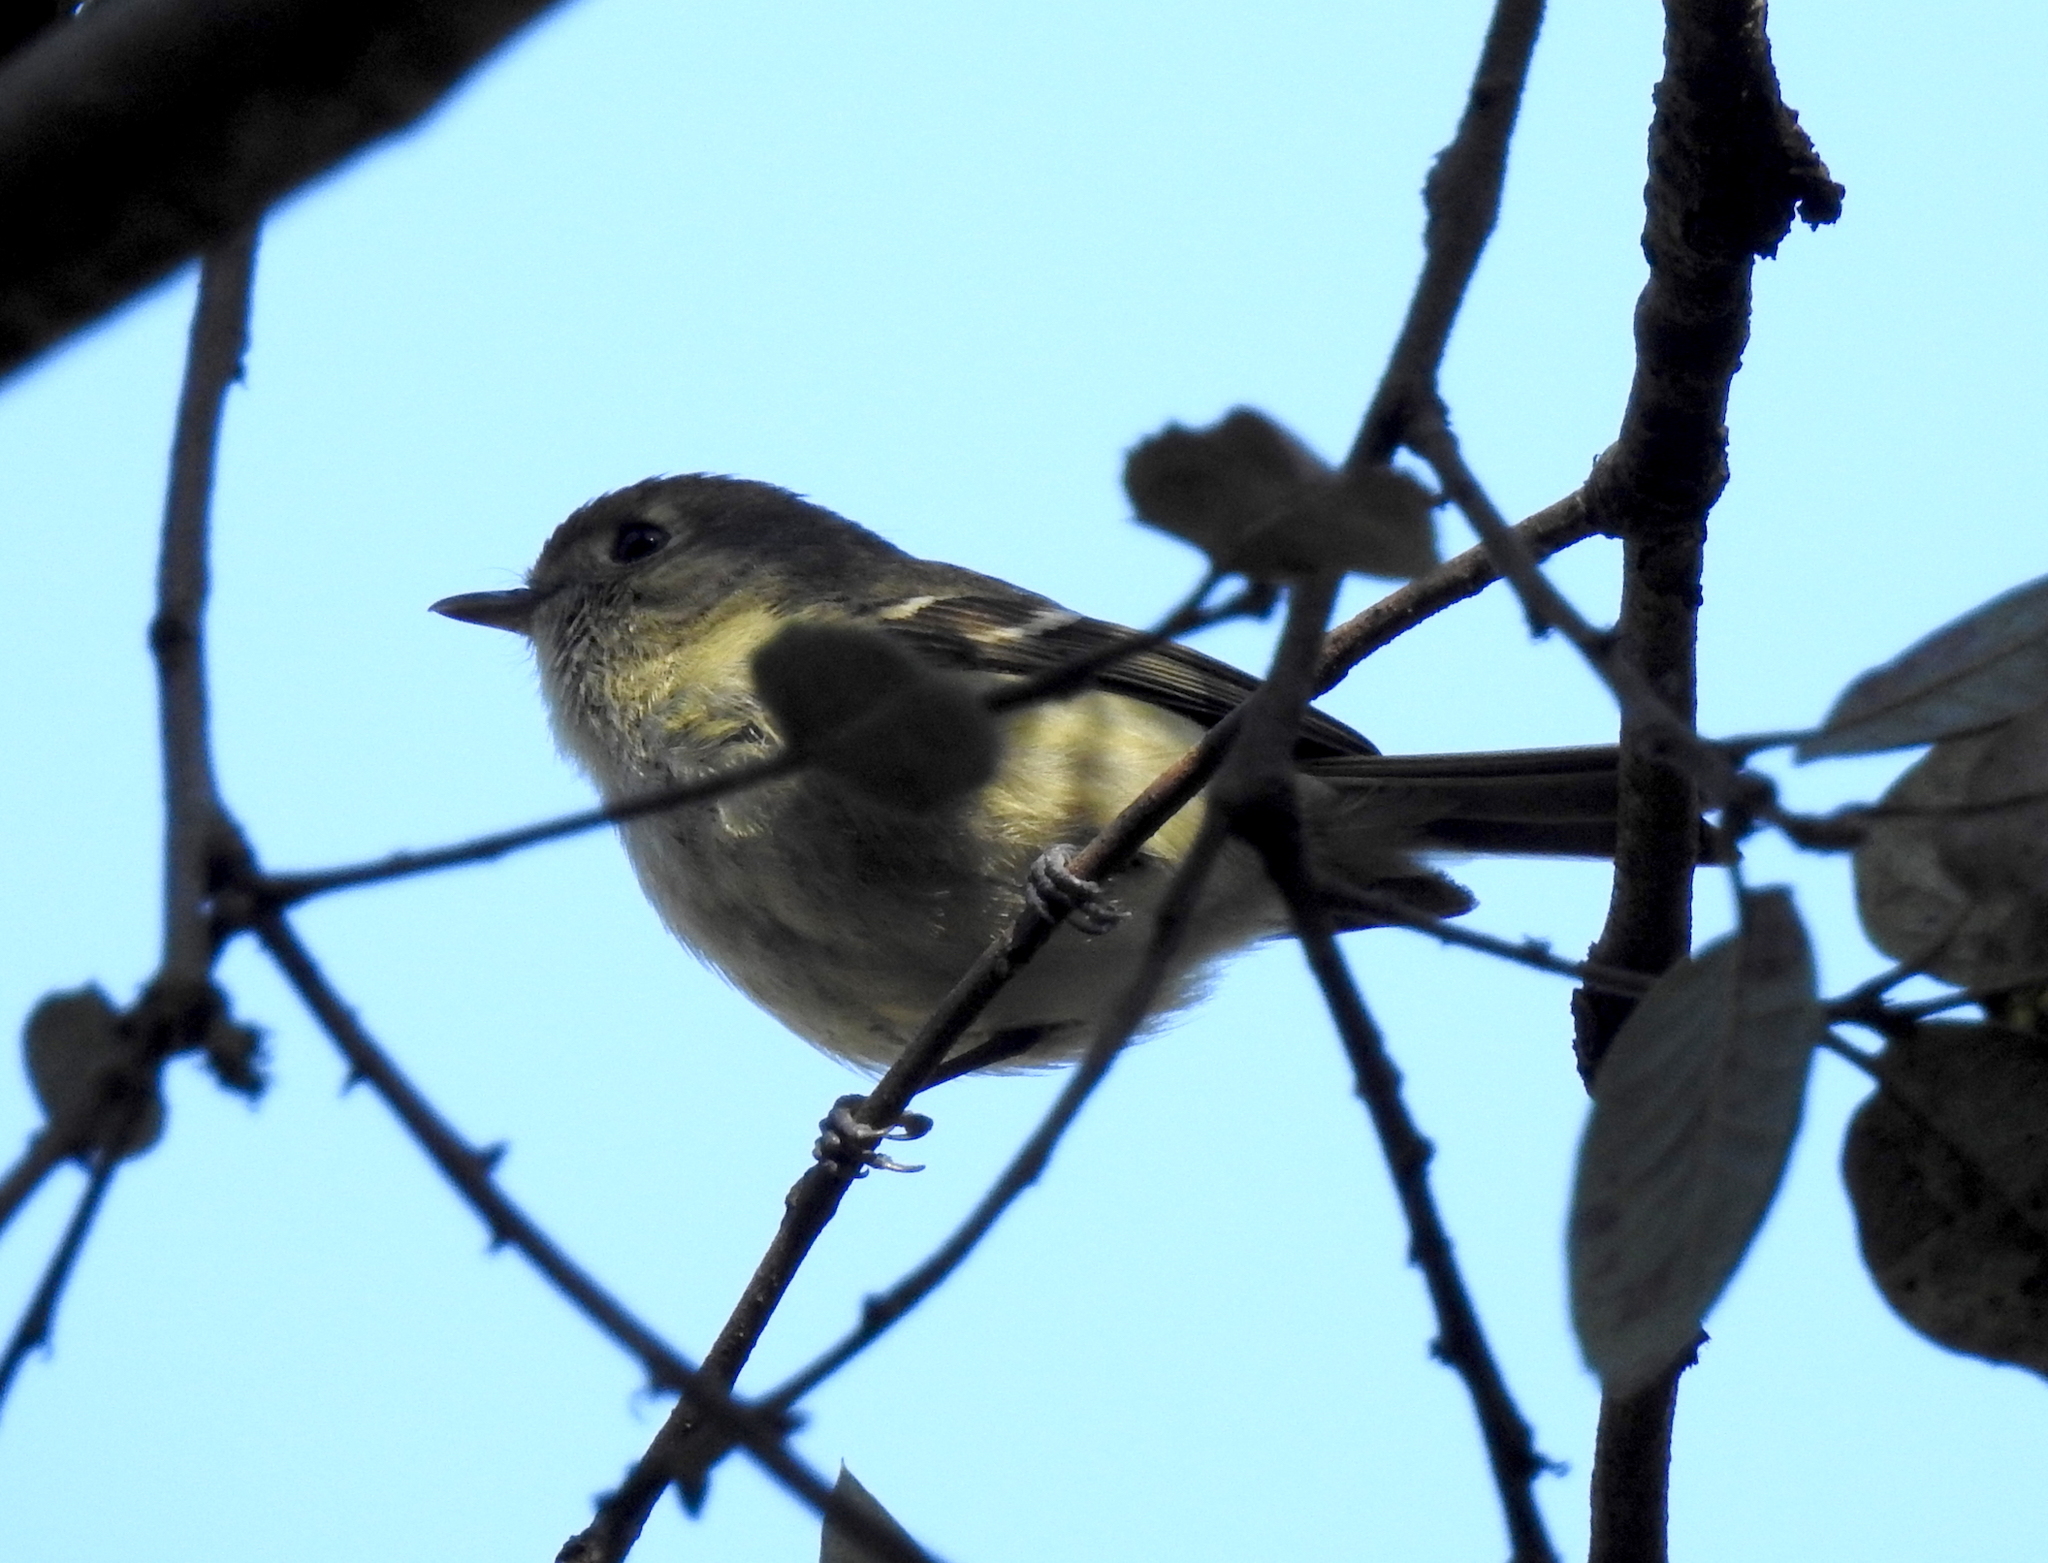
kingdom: Animalia
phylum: Chordata
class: Aves
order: Passeriformes
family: Vireonidae
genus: Vireo
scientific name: Vireo huttoni
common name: Hutton's vireo
